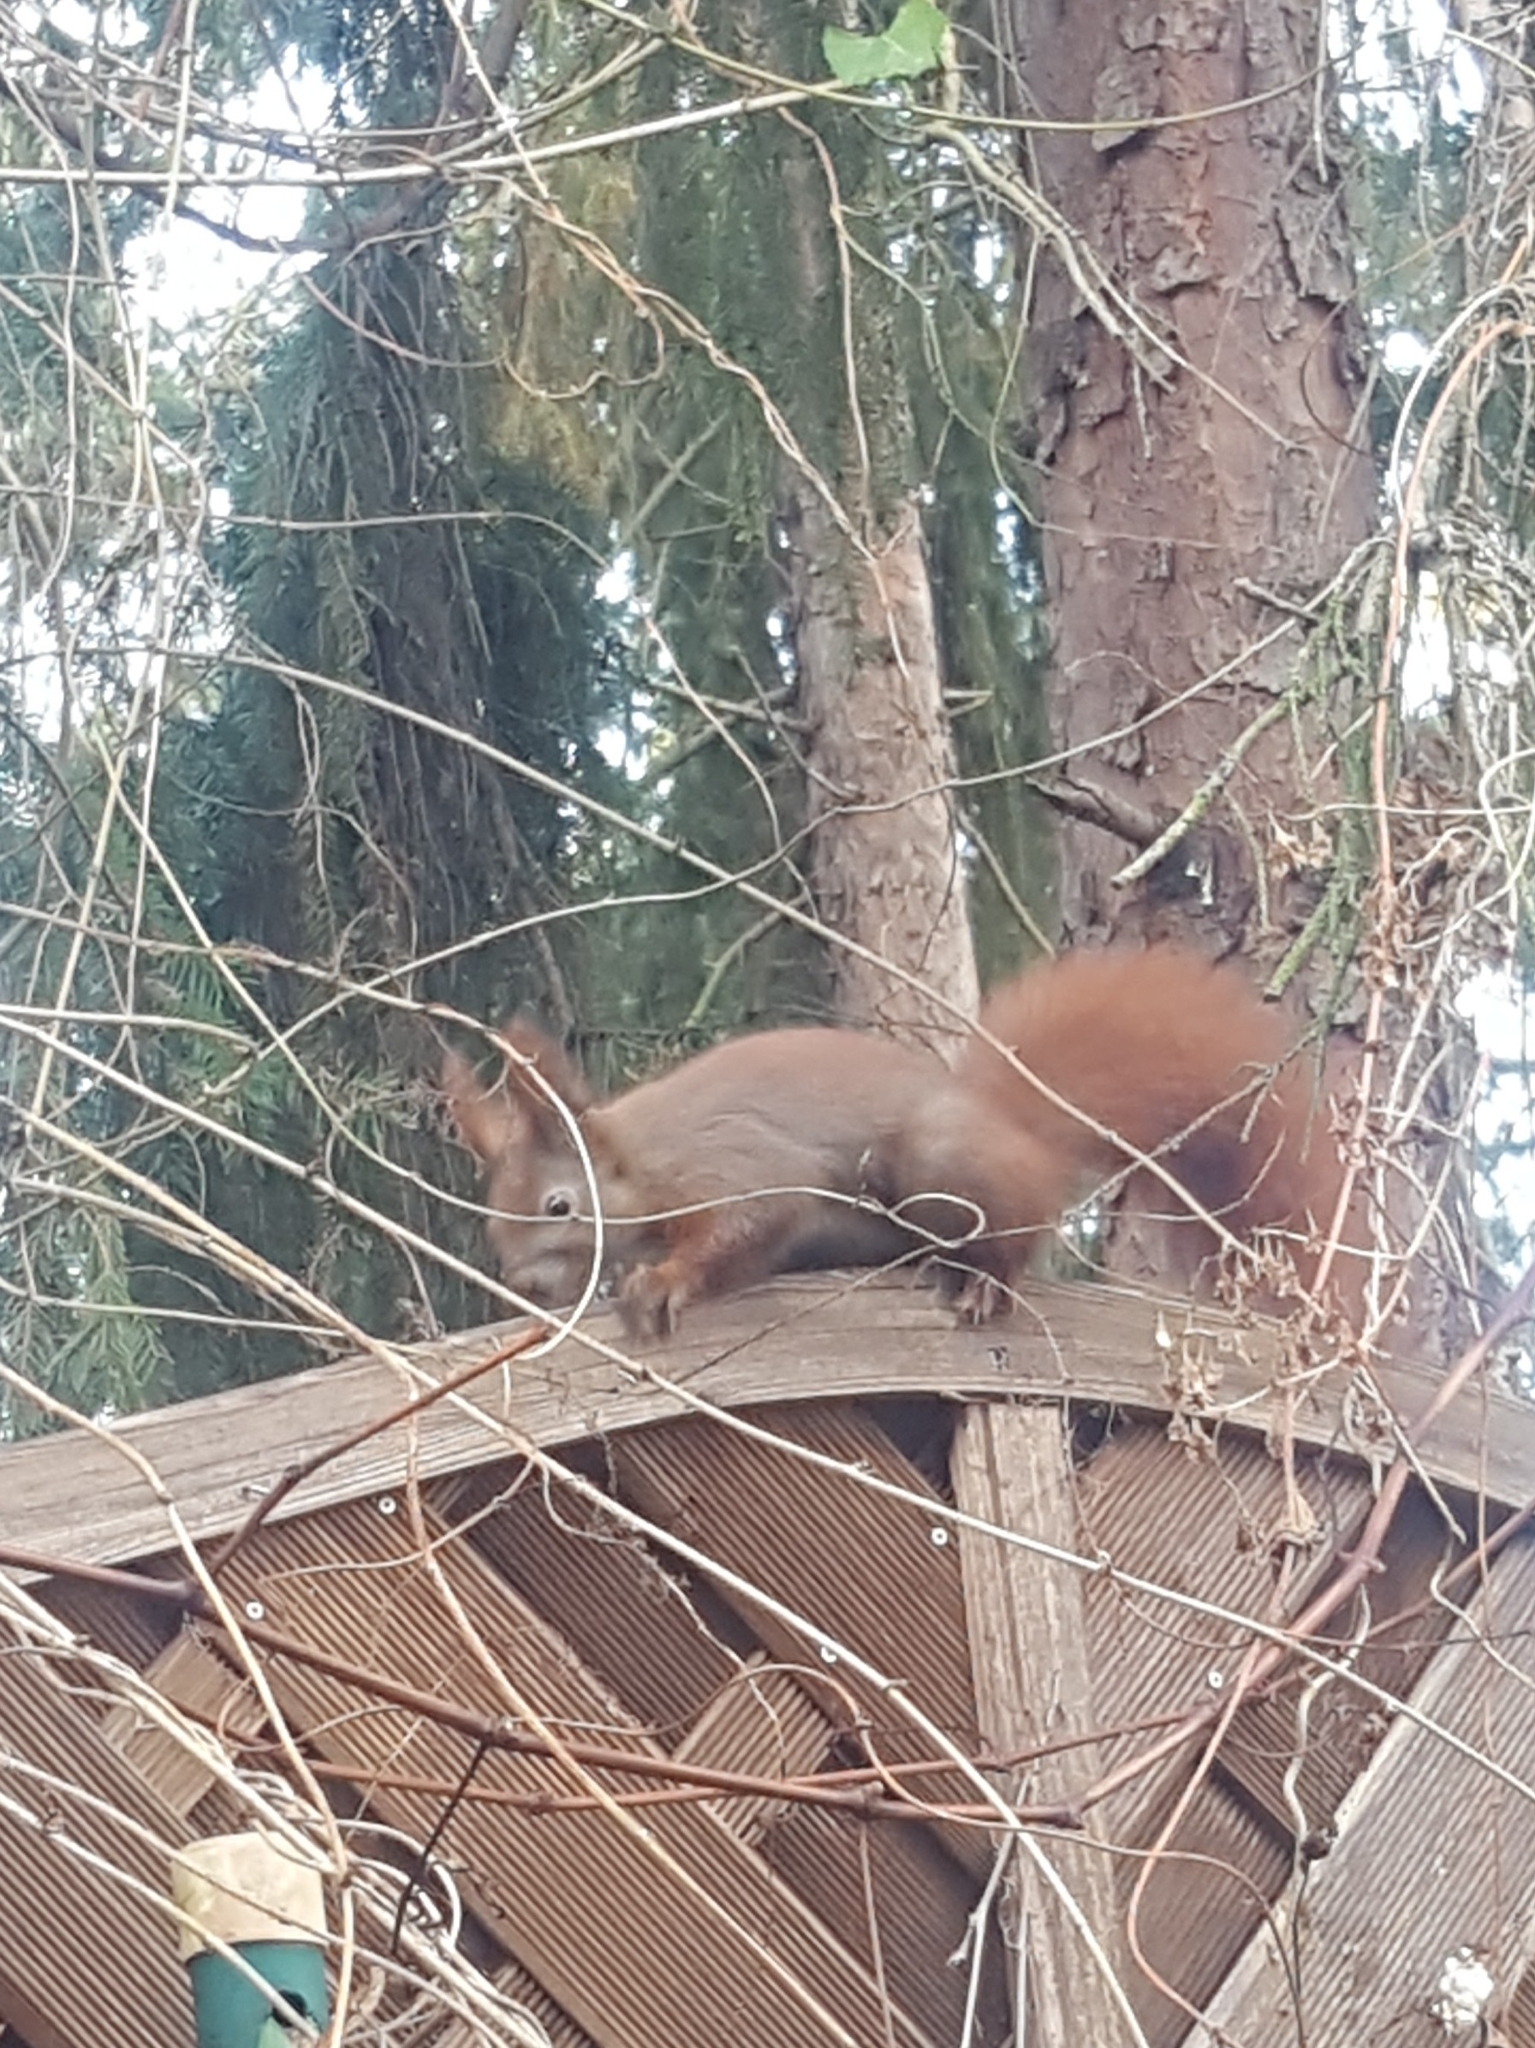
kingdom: Animalia
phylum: Chordata
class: Mammalia
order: Rodentia
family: Sciuridae
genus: Sciurus
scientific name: Sciurus vulgaris
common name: Eurasian red squirrel
